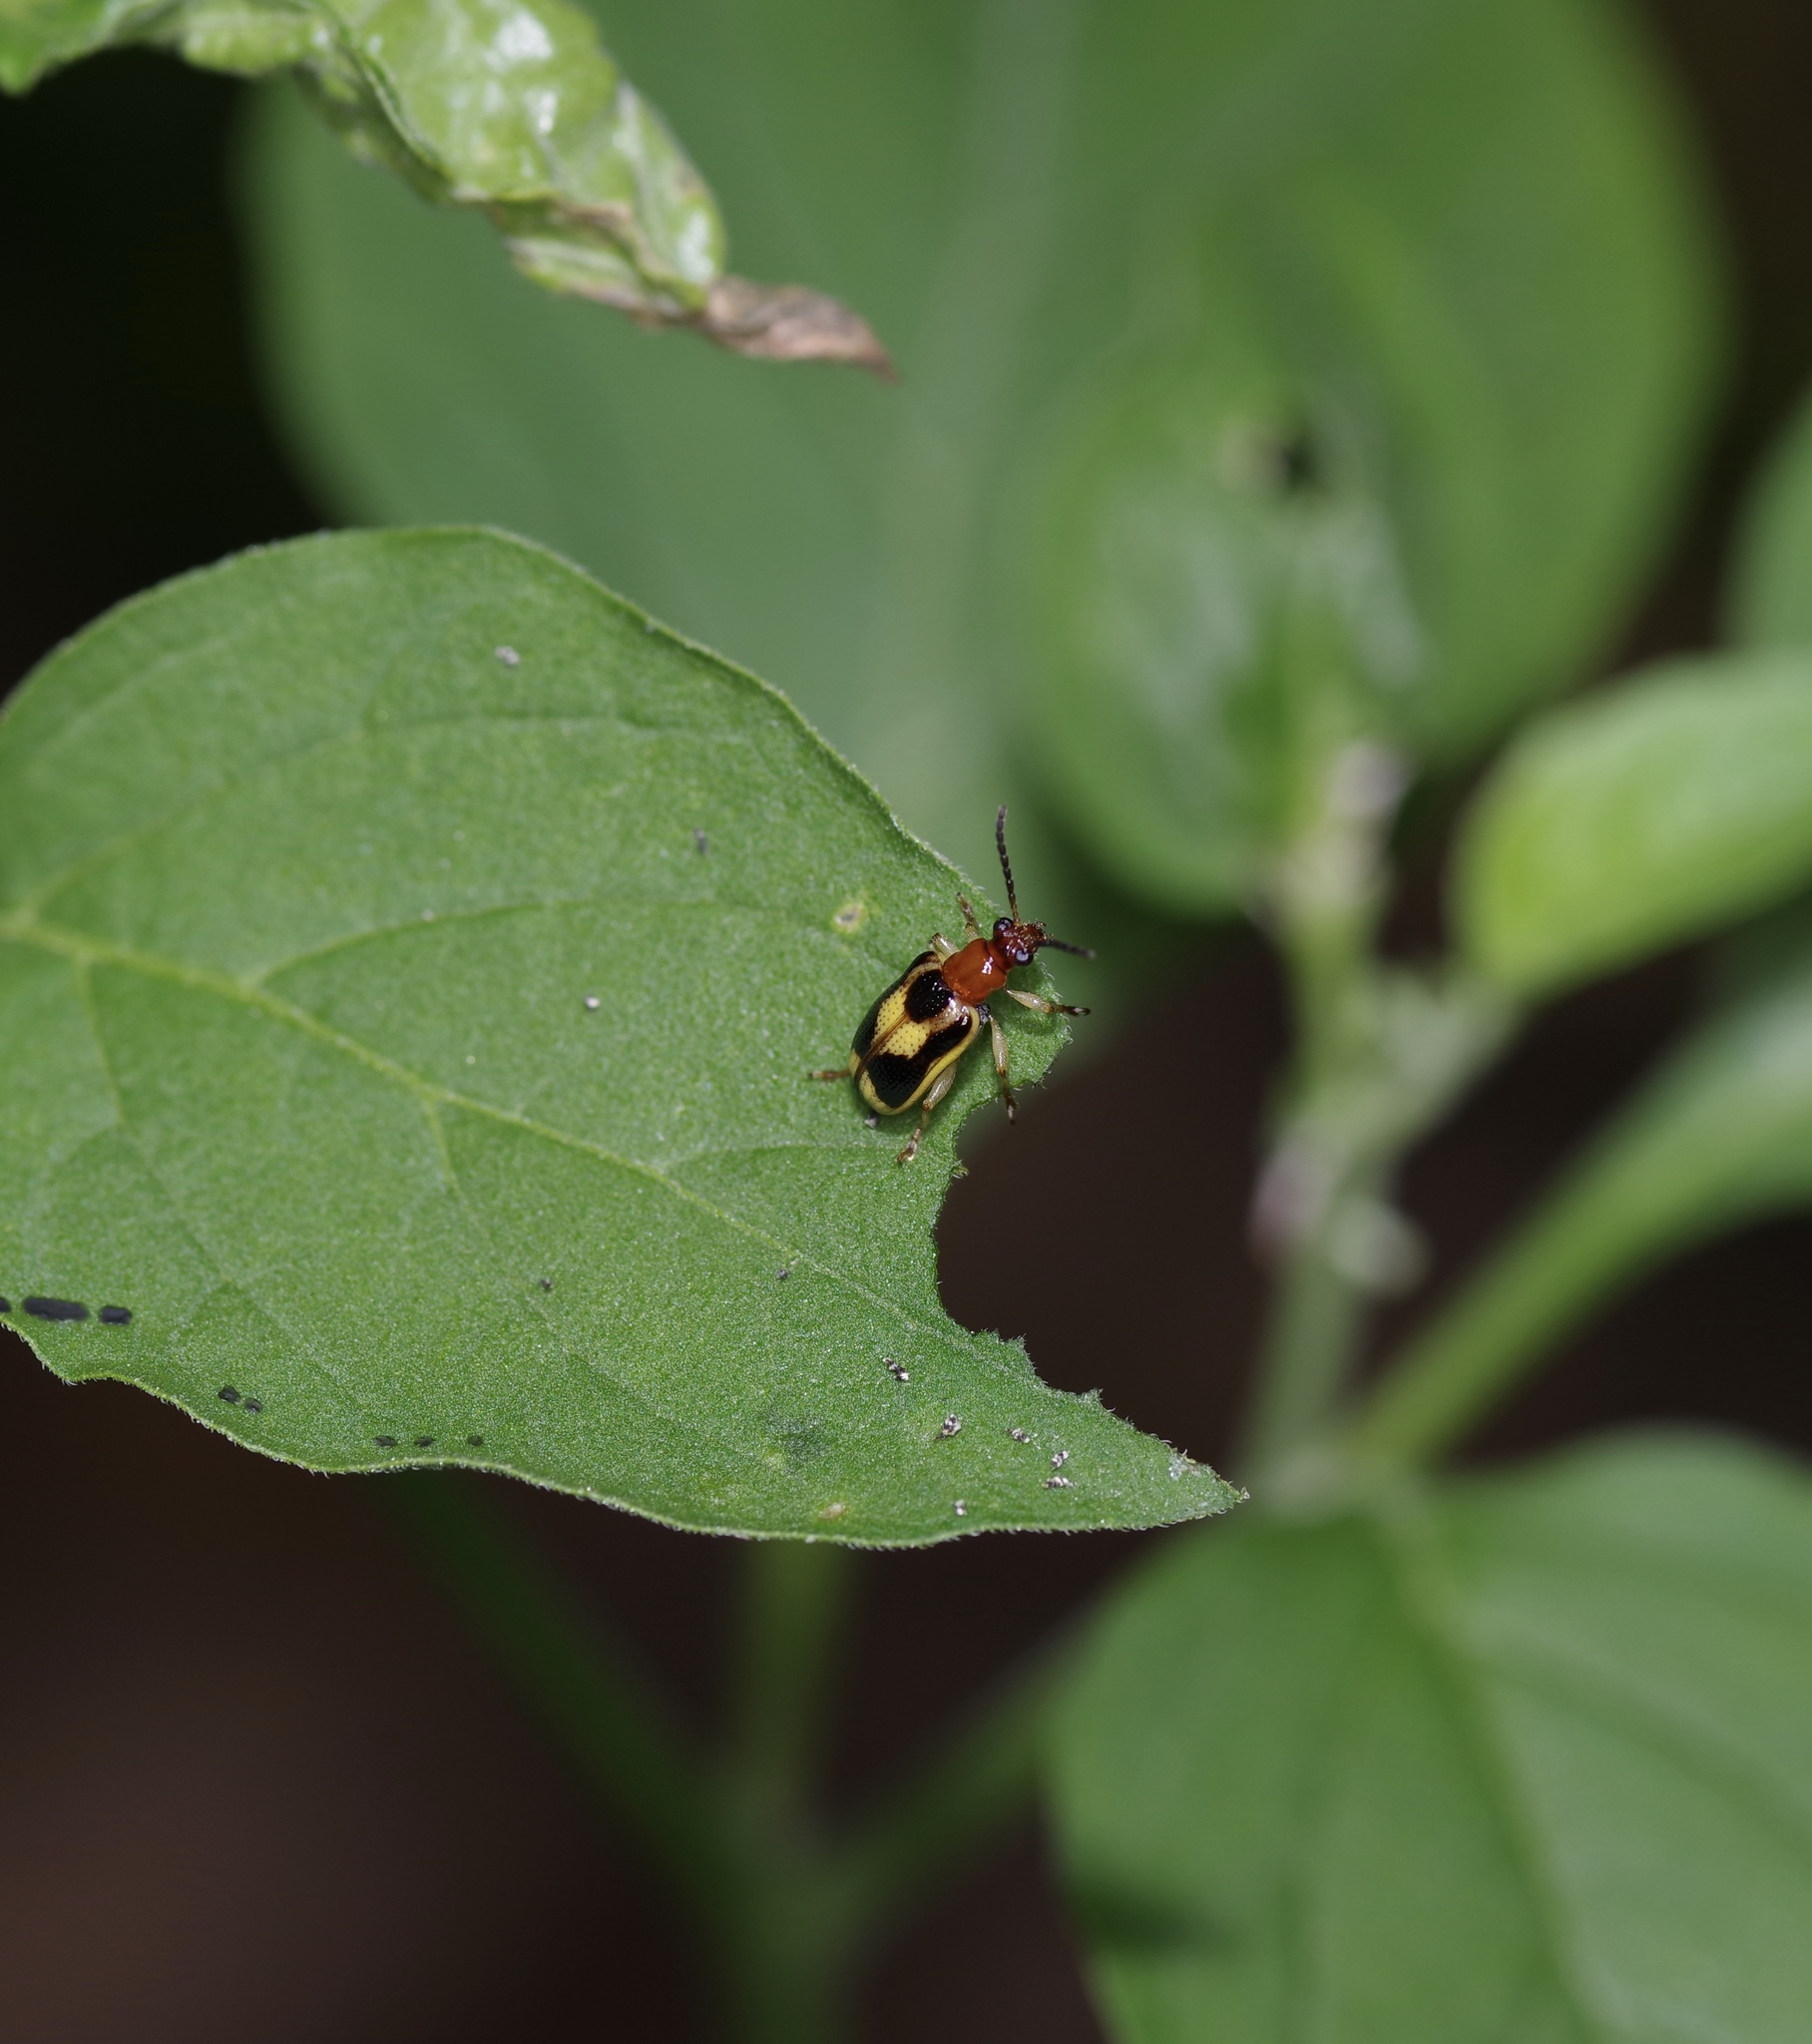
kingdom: Animalia
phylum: Arthropoda
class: Insecta
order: Coleoptera
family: Chrysomelidae
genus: Lema
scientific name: Lema opulenta
